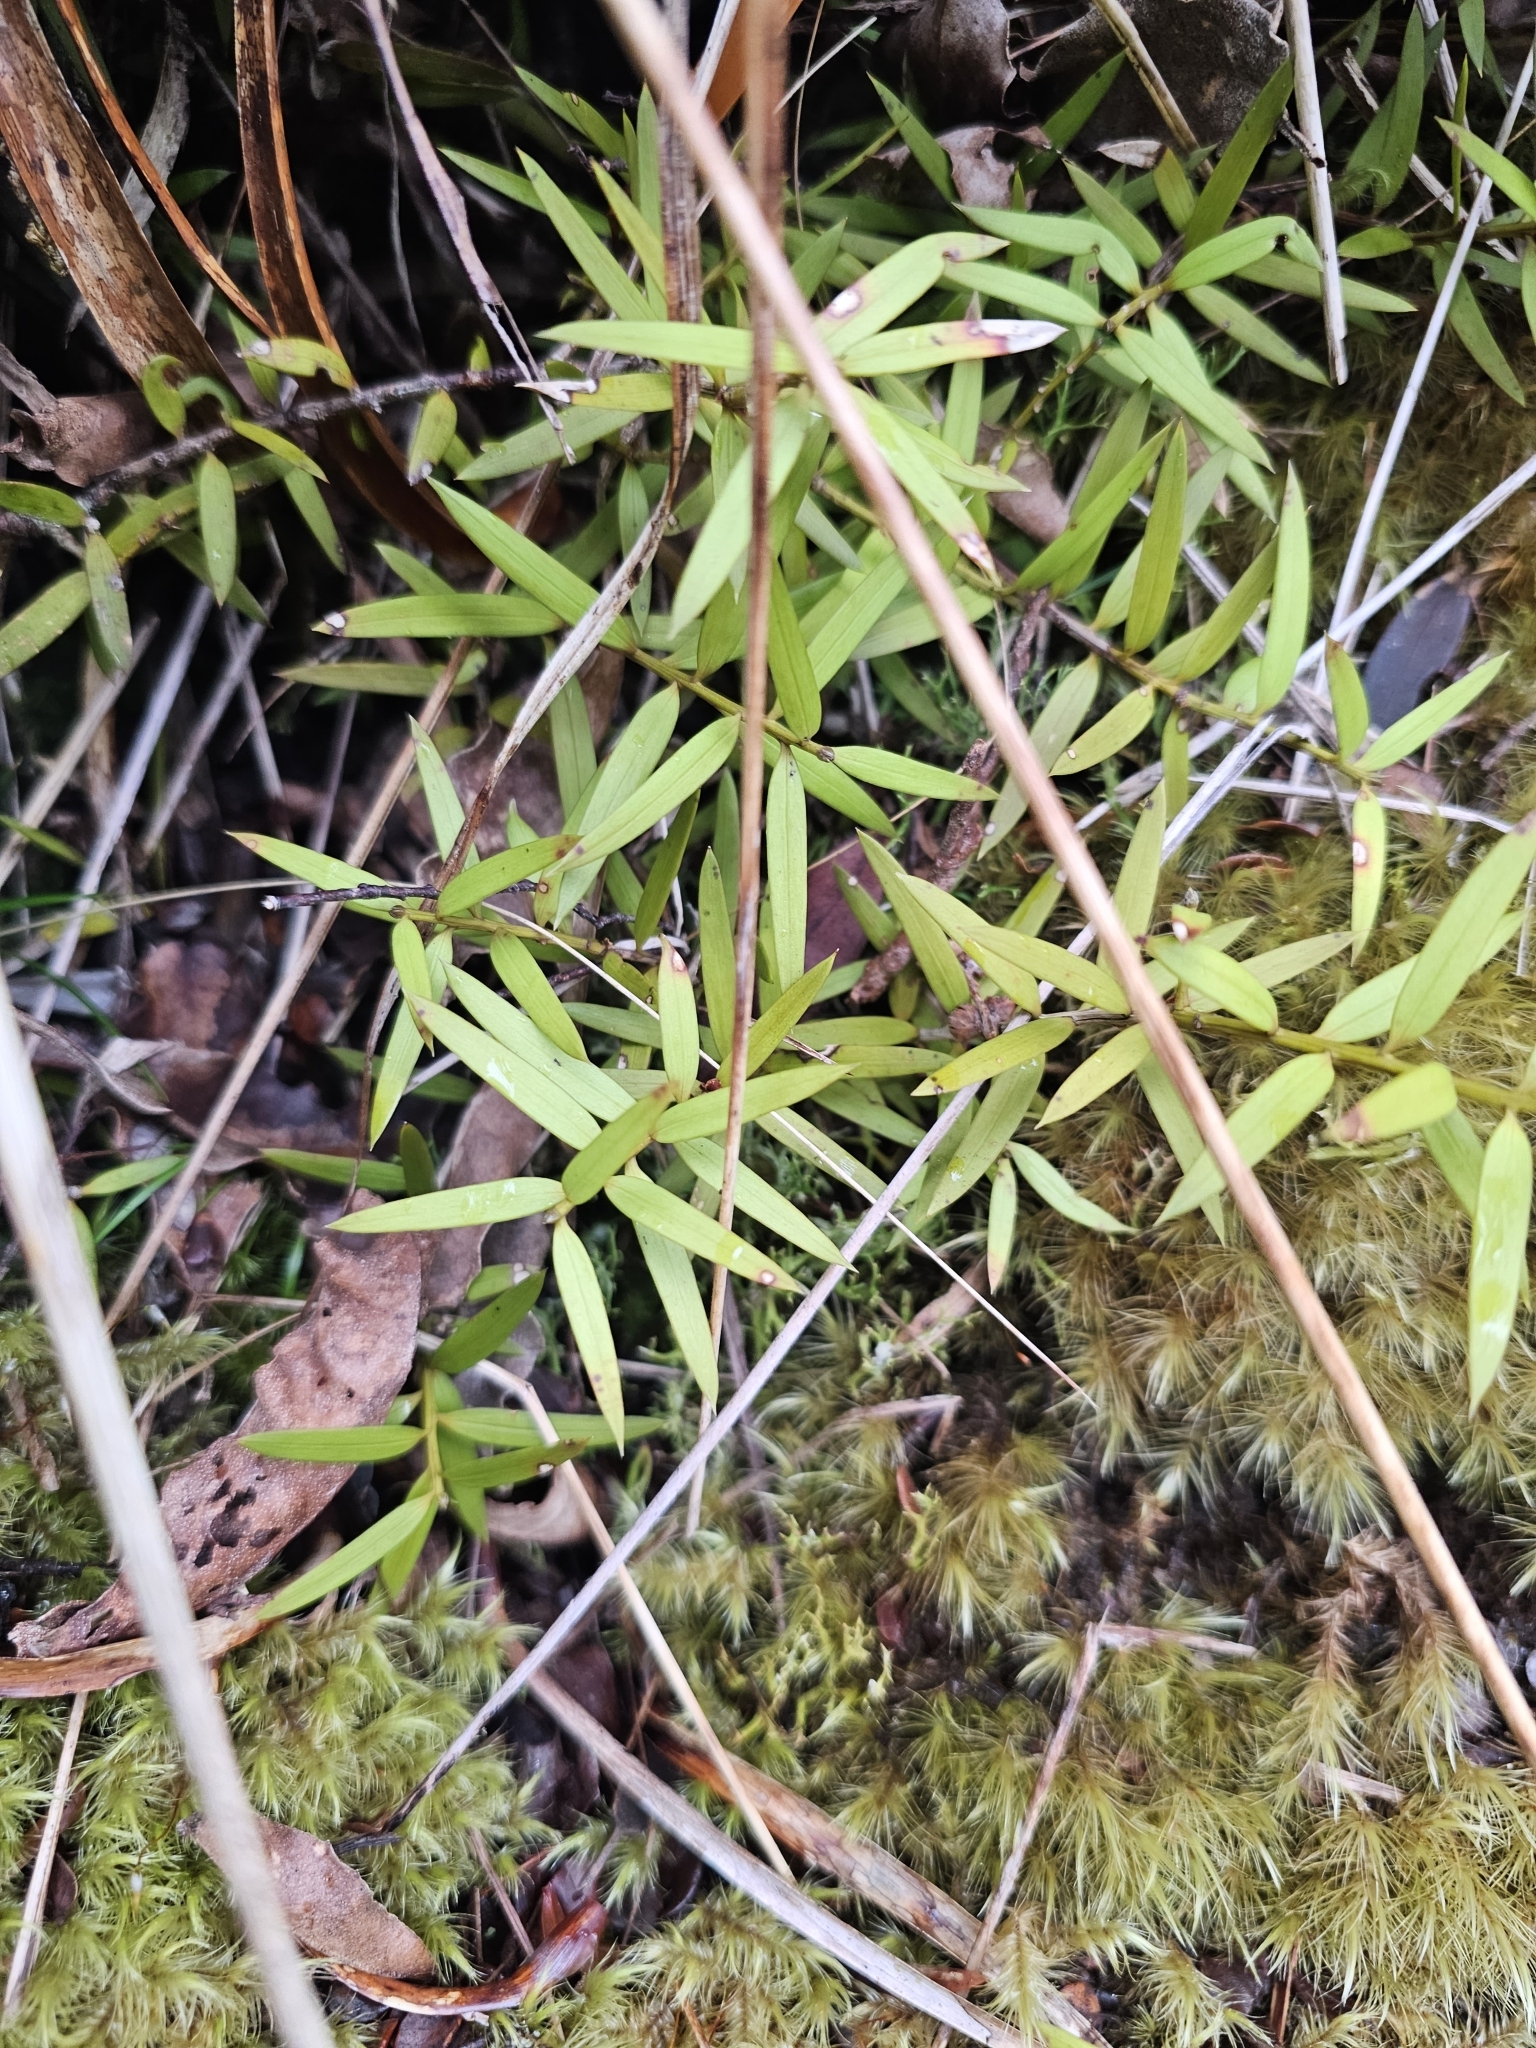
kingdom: Plantae
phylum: Tracheophyta
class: Pinopsida
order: Pinales
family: Podocarpaceae
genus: Podocarpus
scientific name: Podocarpus laetus
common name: Hall's totara
